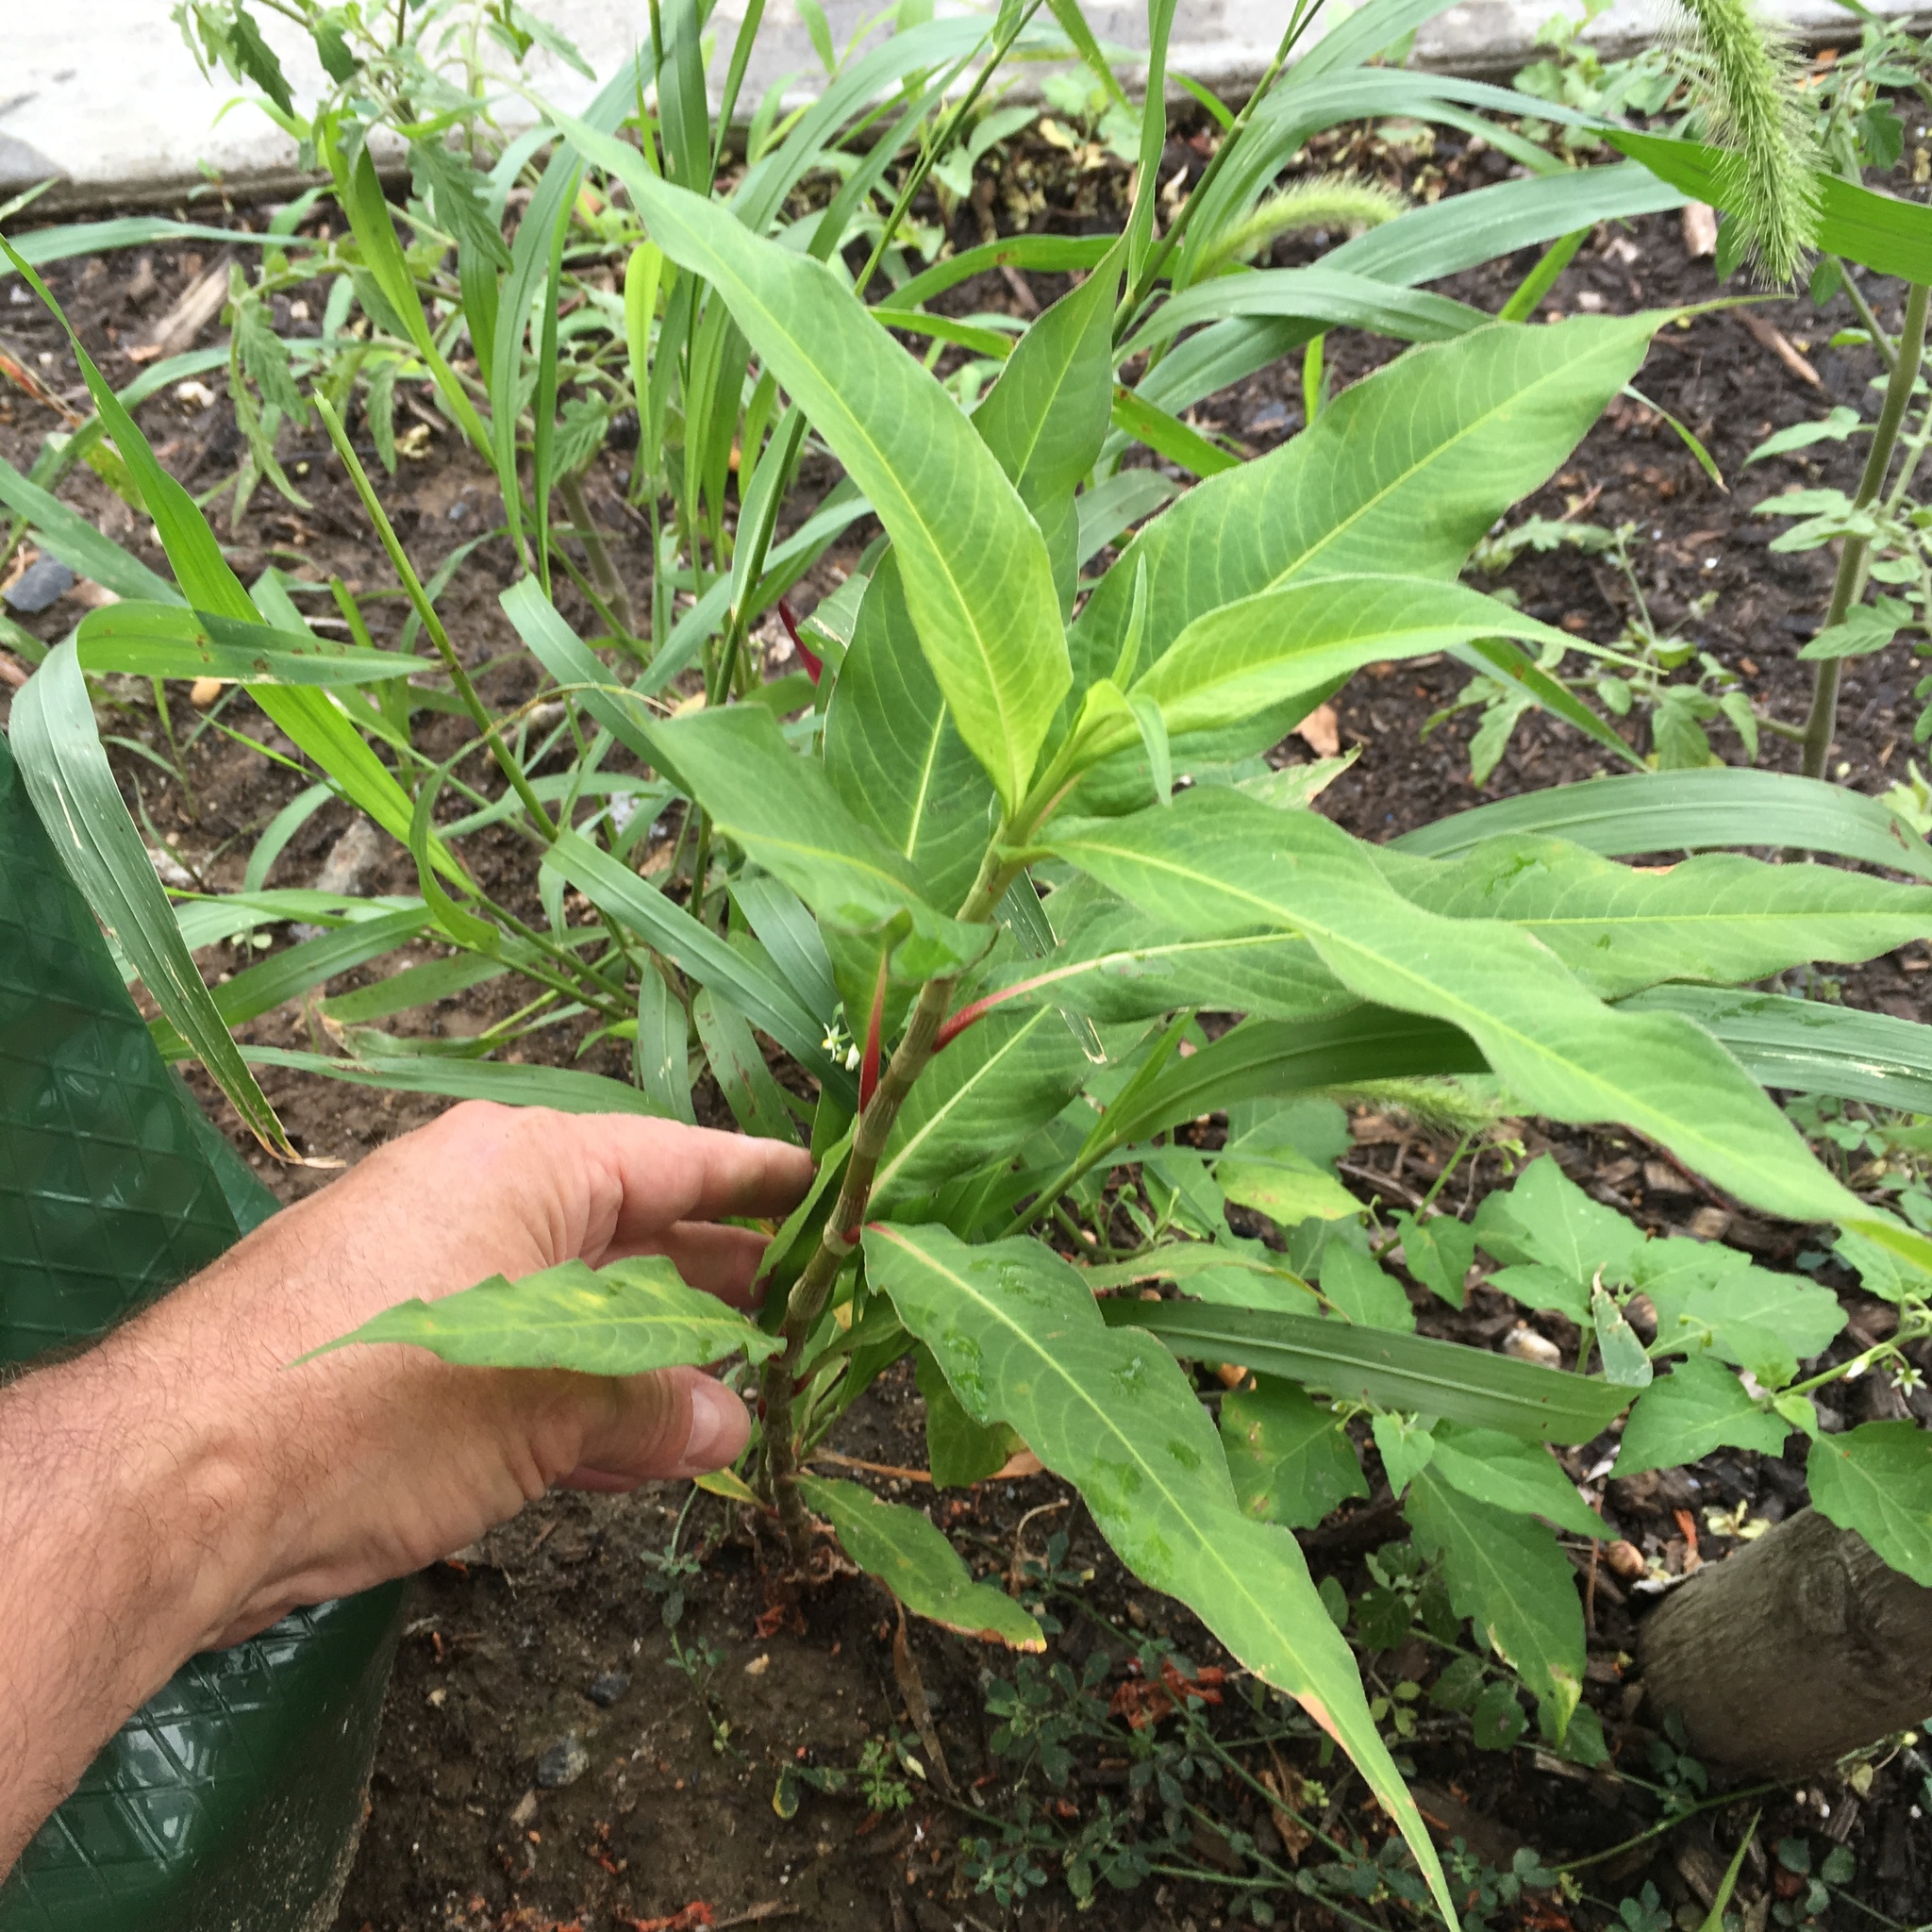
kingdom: Plantae
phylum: Tracheophyta
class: Magnoliopsida
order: Caryophyllales
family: Polygonaceae
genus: Persicaria
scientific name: Persicaria extremiorientalis
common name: Far-eastern smartweed
